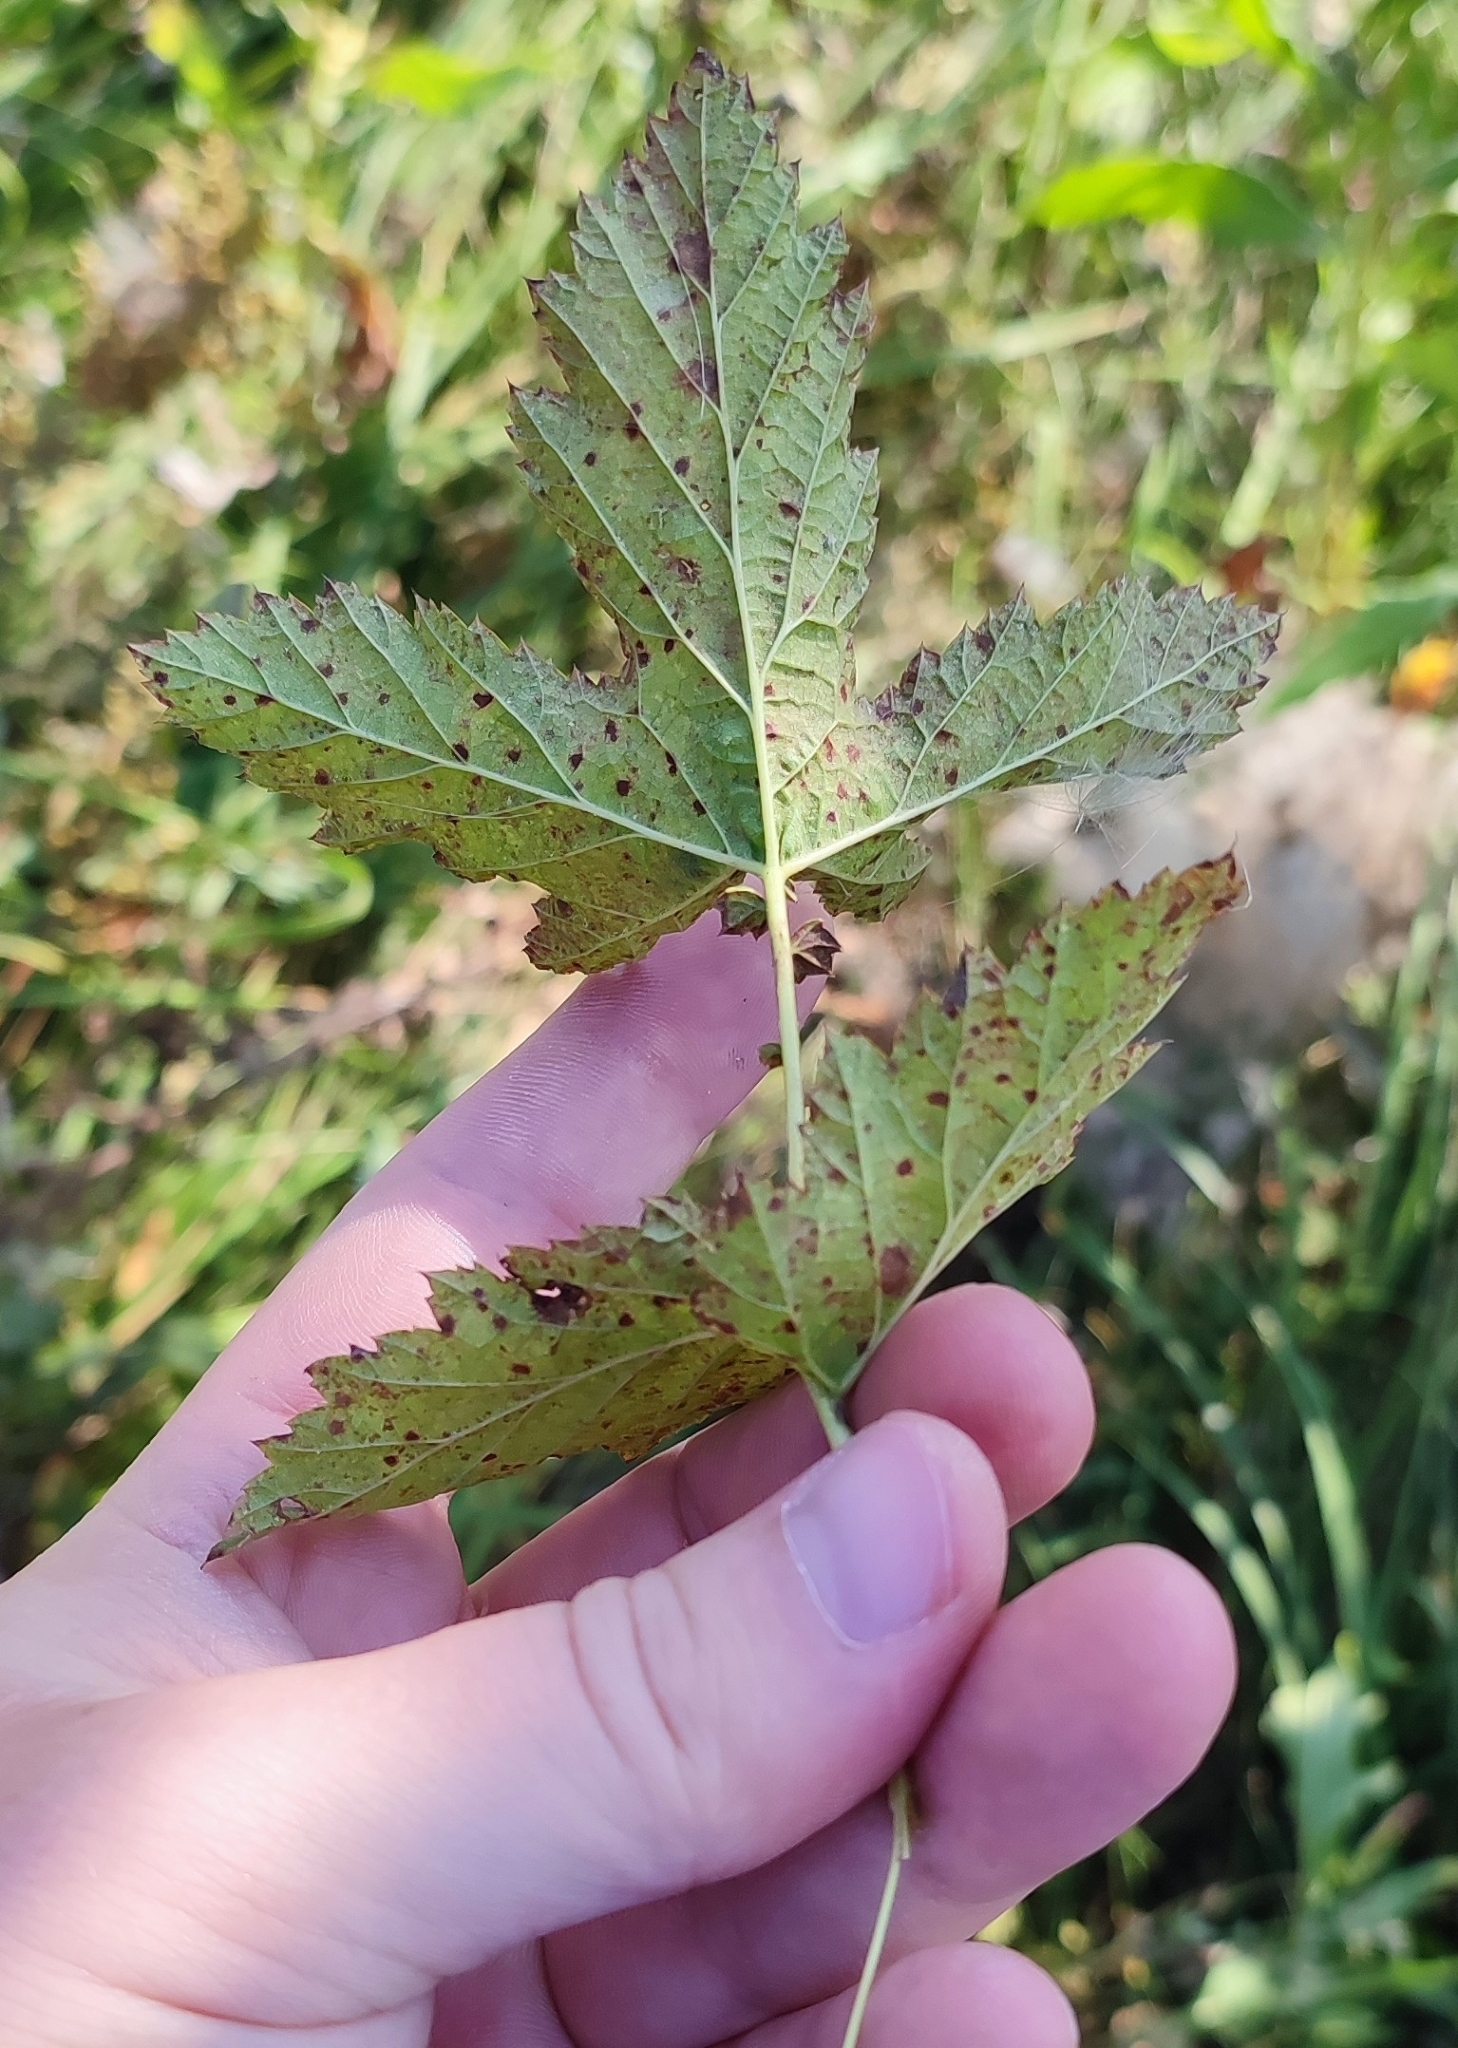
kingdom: Plantae
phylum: Tracheophyta
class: Magnoliopsida
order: Rosales
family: Rosaceae
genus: Filipendula
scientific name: Filipendula ulmaria
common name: Meadowsweet
